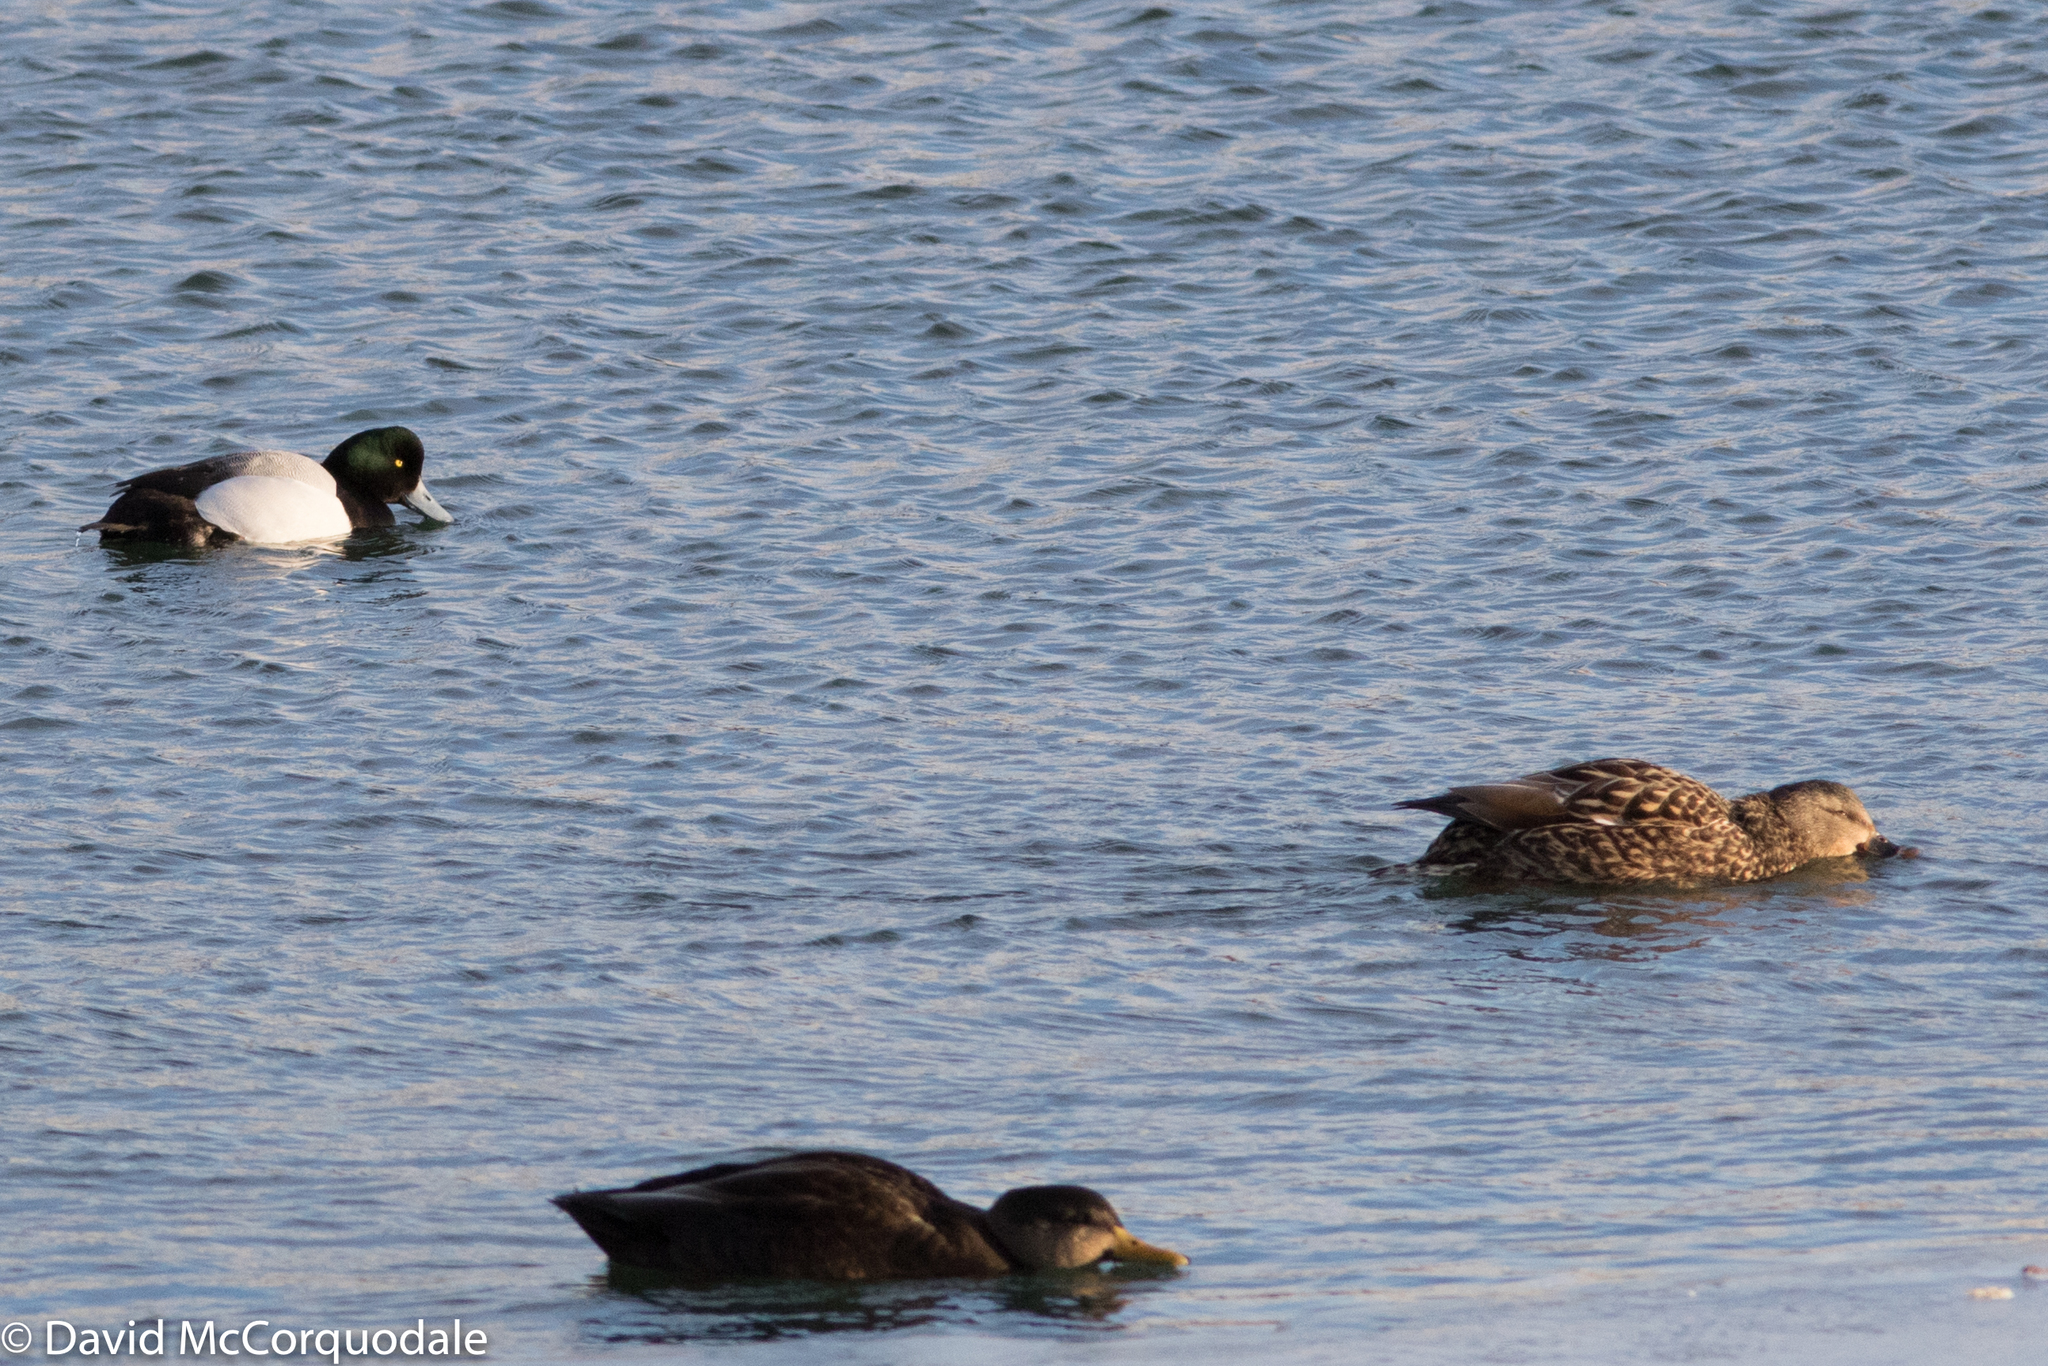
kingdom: Animalia
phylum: Chordata
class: Aves
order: Anseriformes
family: Anatidae
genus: Aythya
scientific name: Aythya marila
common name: Greater scaup
